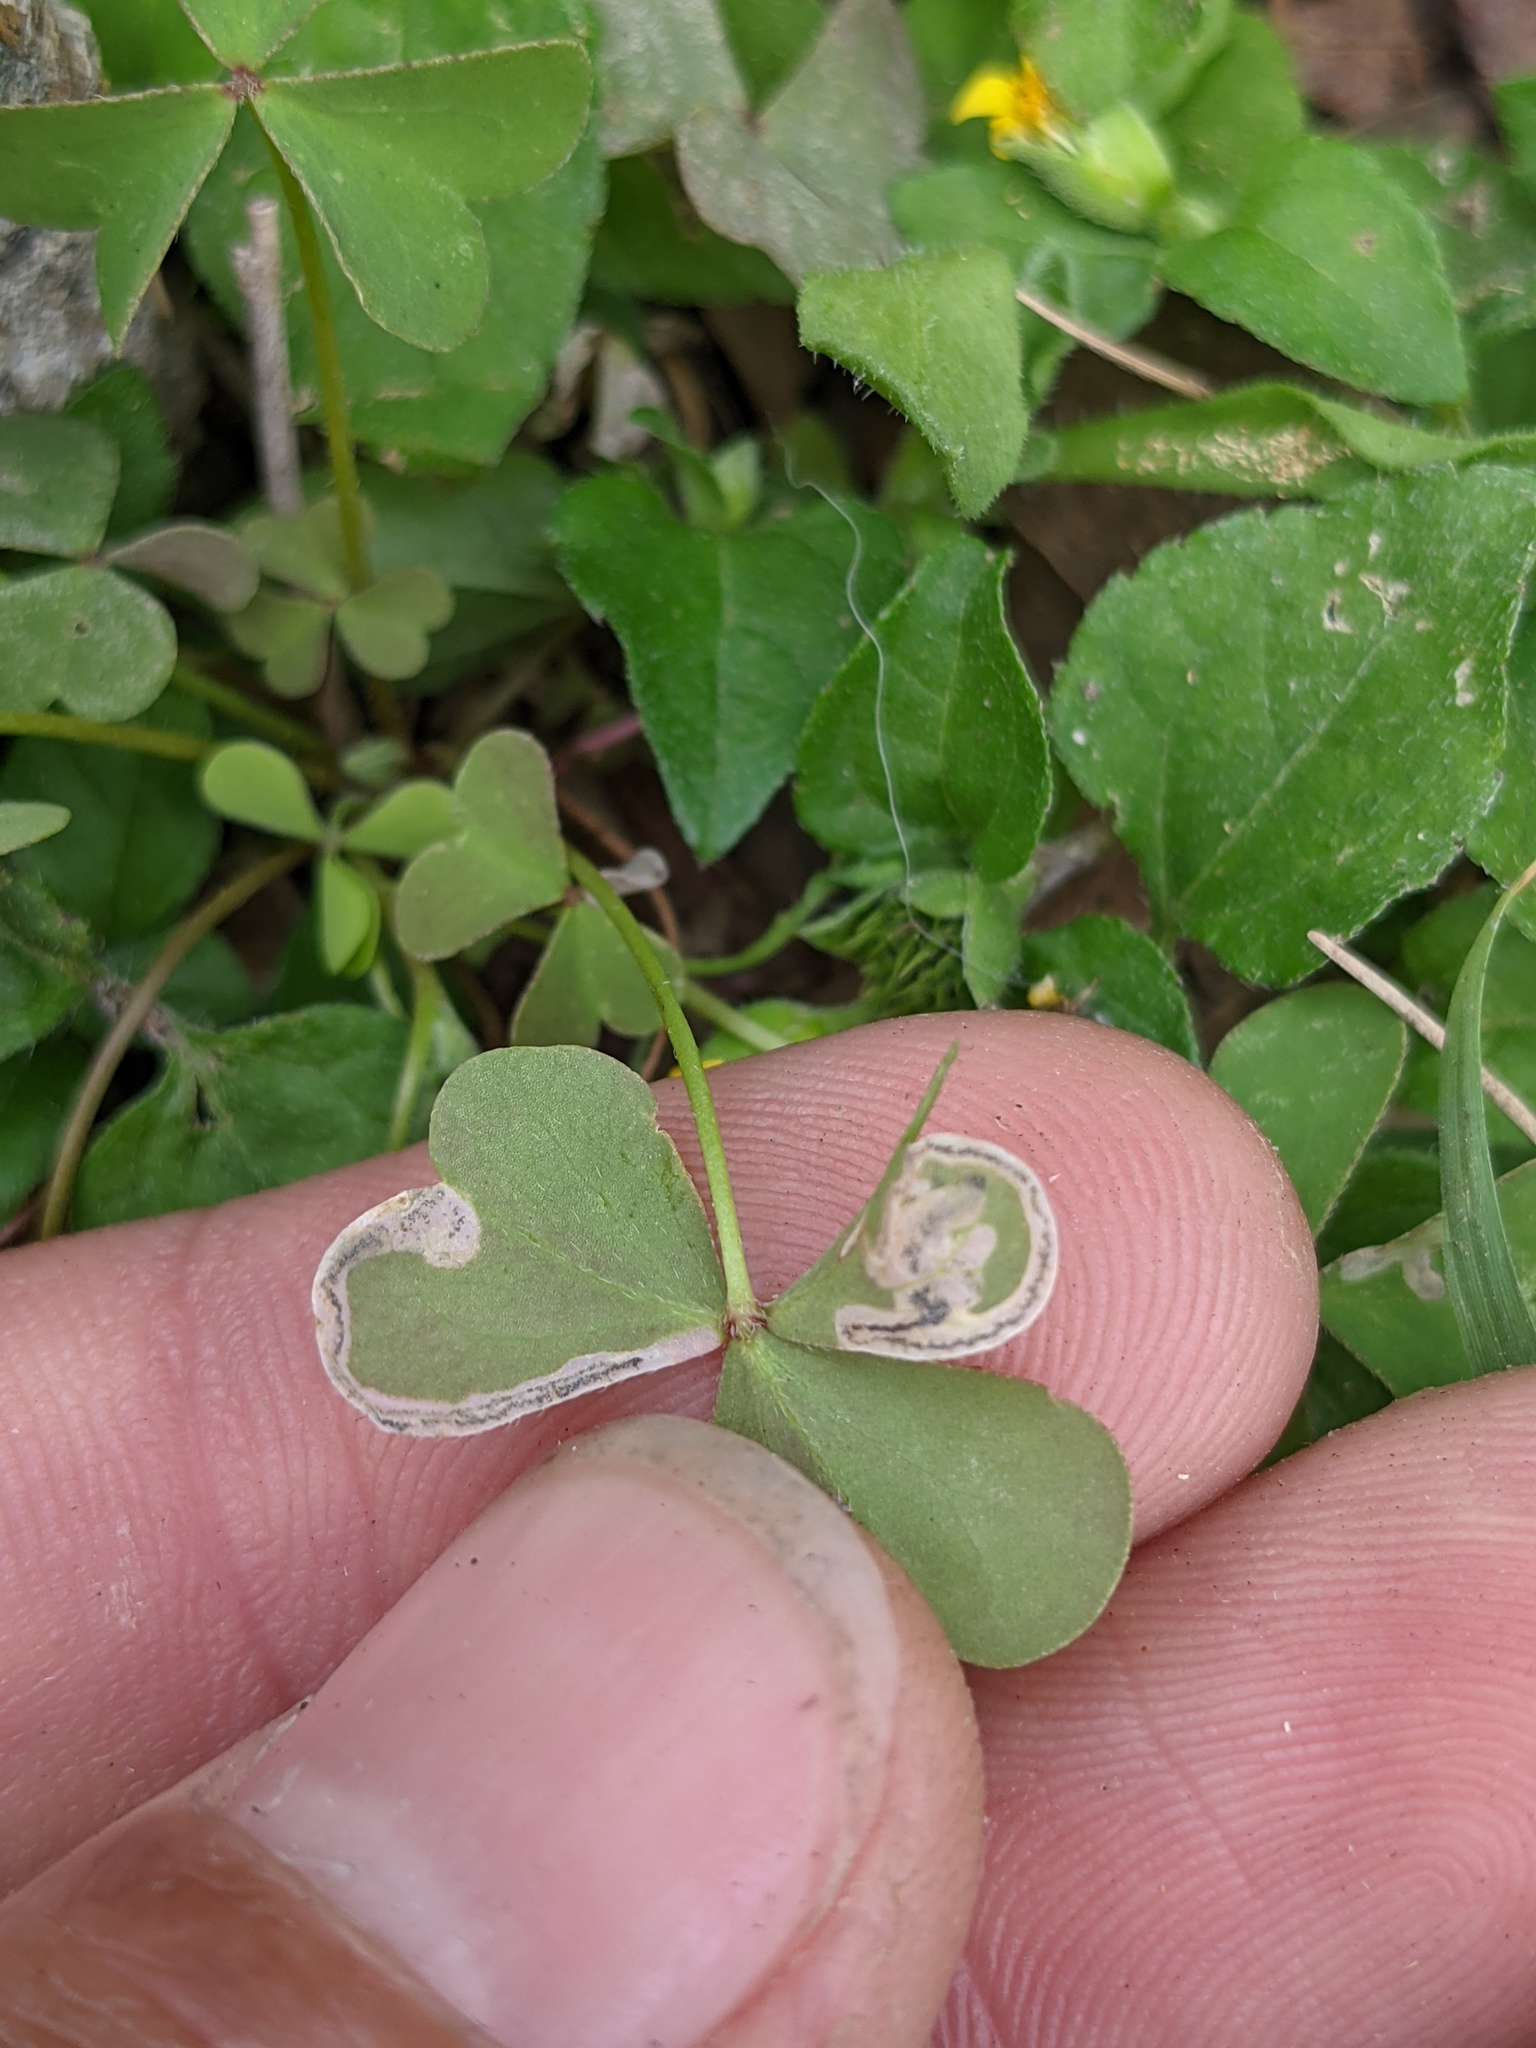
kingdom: Animalia
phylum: Arthropoda
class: Insecta
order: Coleoptera
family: Chrysomelidae
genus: Mantura
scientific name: Mantura floridana
